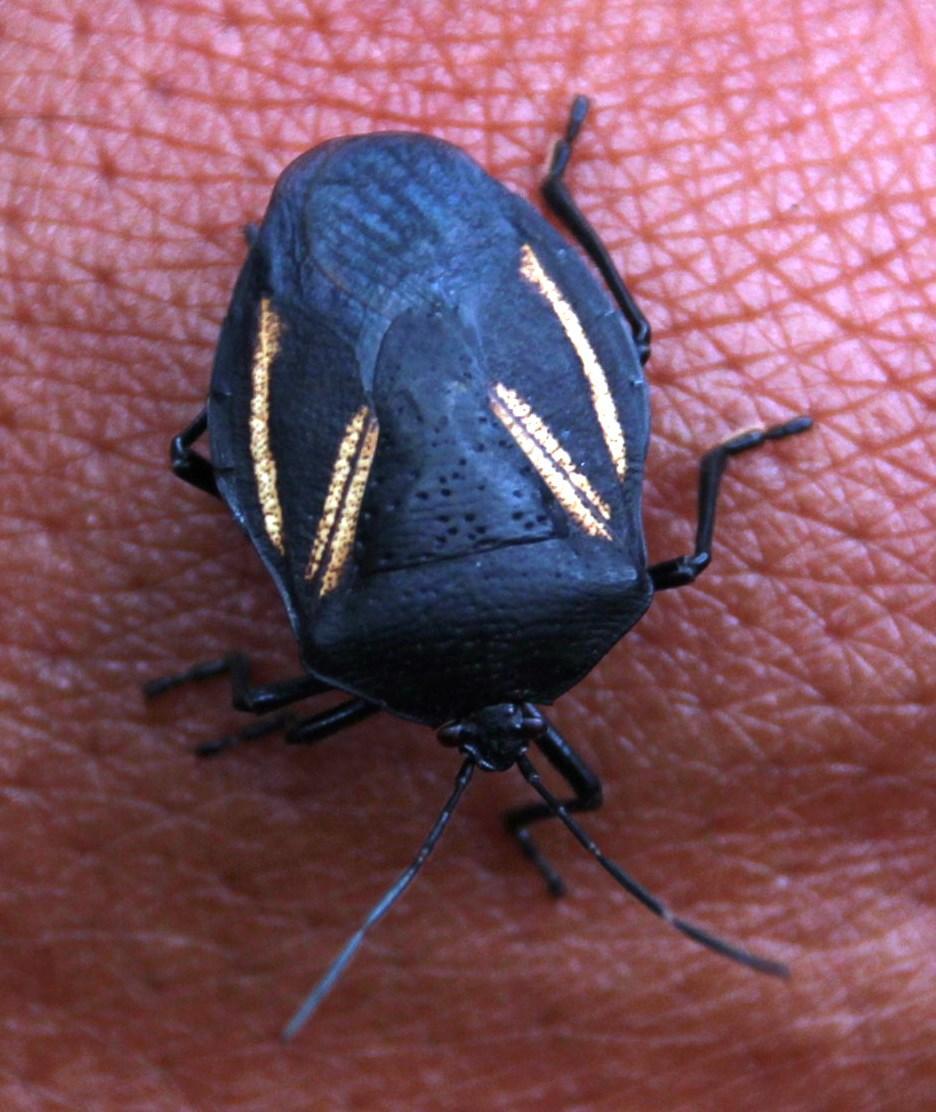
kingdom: Animalia
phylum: Arthropoda
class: Insecta
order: Hemiptera
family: Pentatomidae
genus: Brachystethus
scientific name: Brachystethus vexillum
